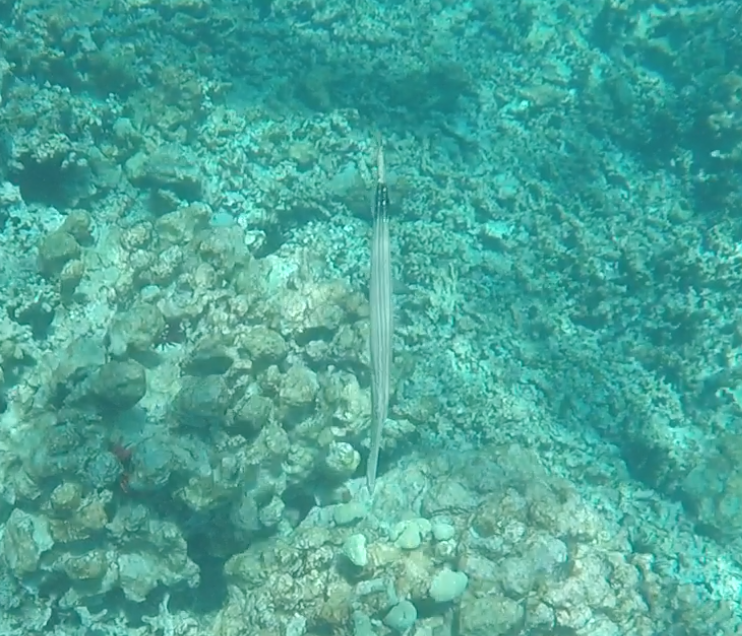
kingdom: Animalia
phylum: Chordata
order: Syngnathiformes
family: Aulostomidae
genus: Aulostomus
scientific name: Aulostomus chinensis
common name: Chinese trumpetfish
